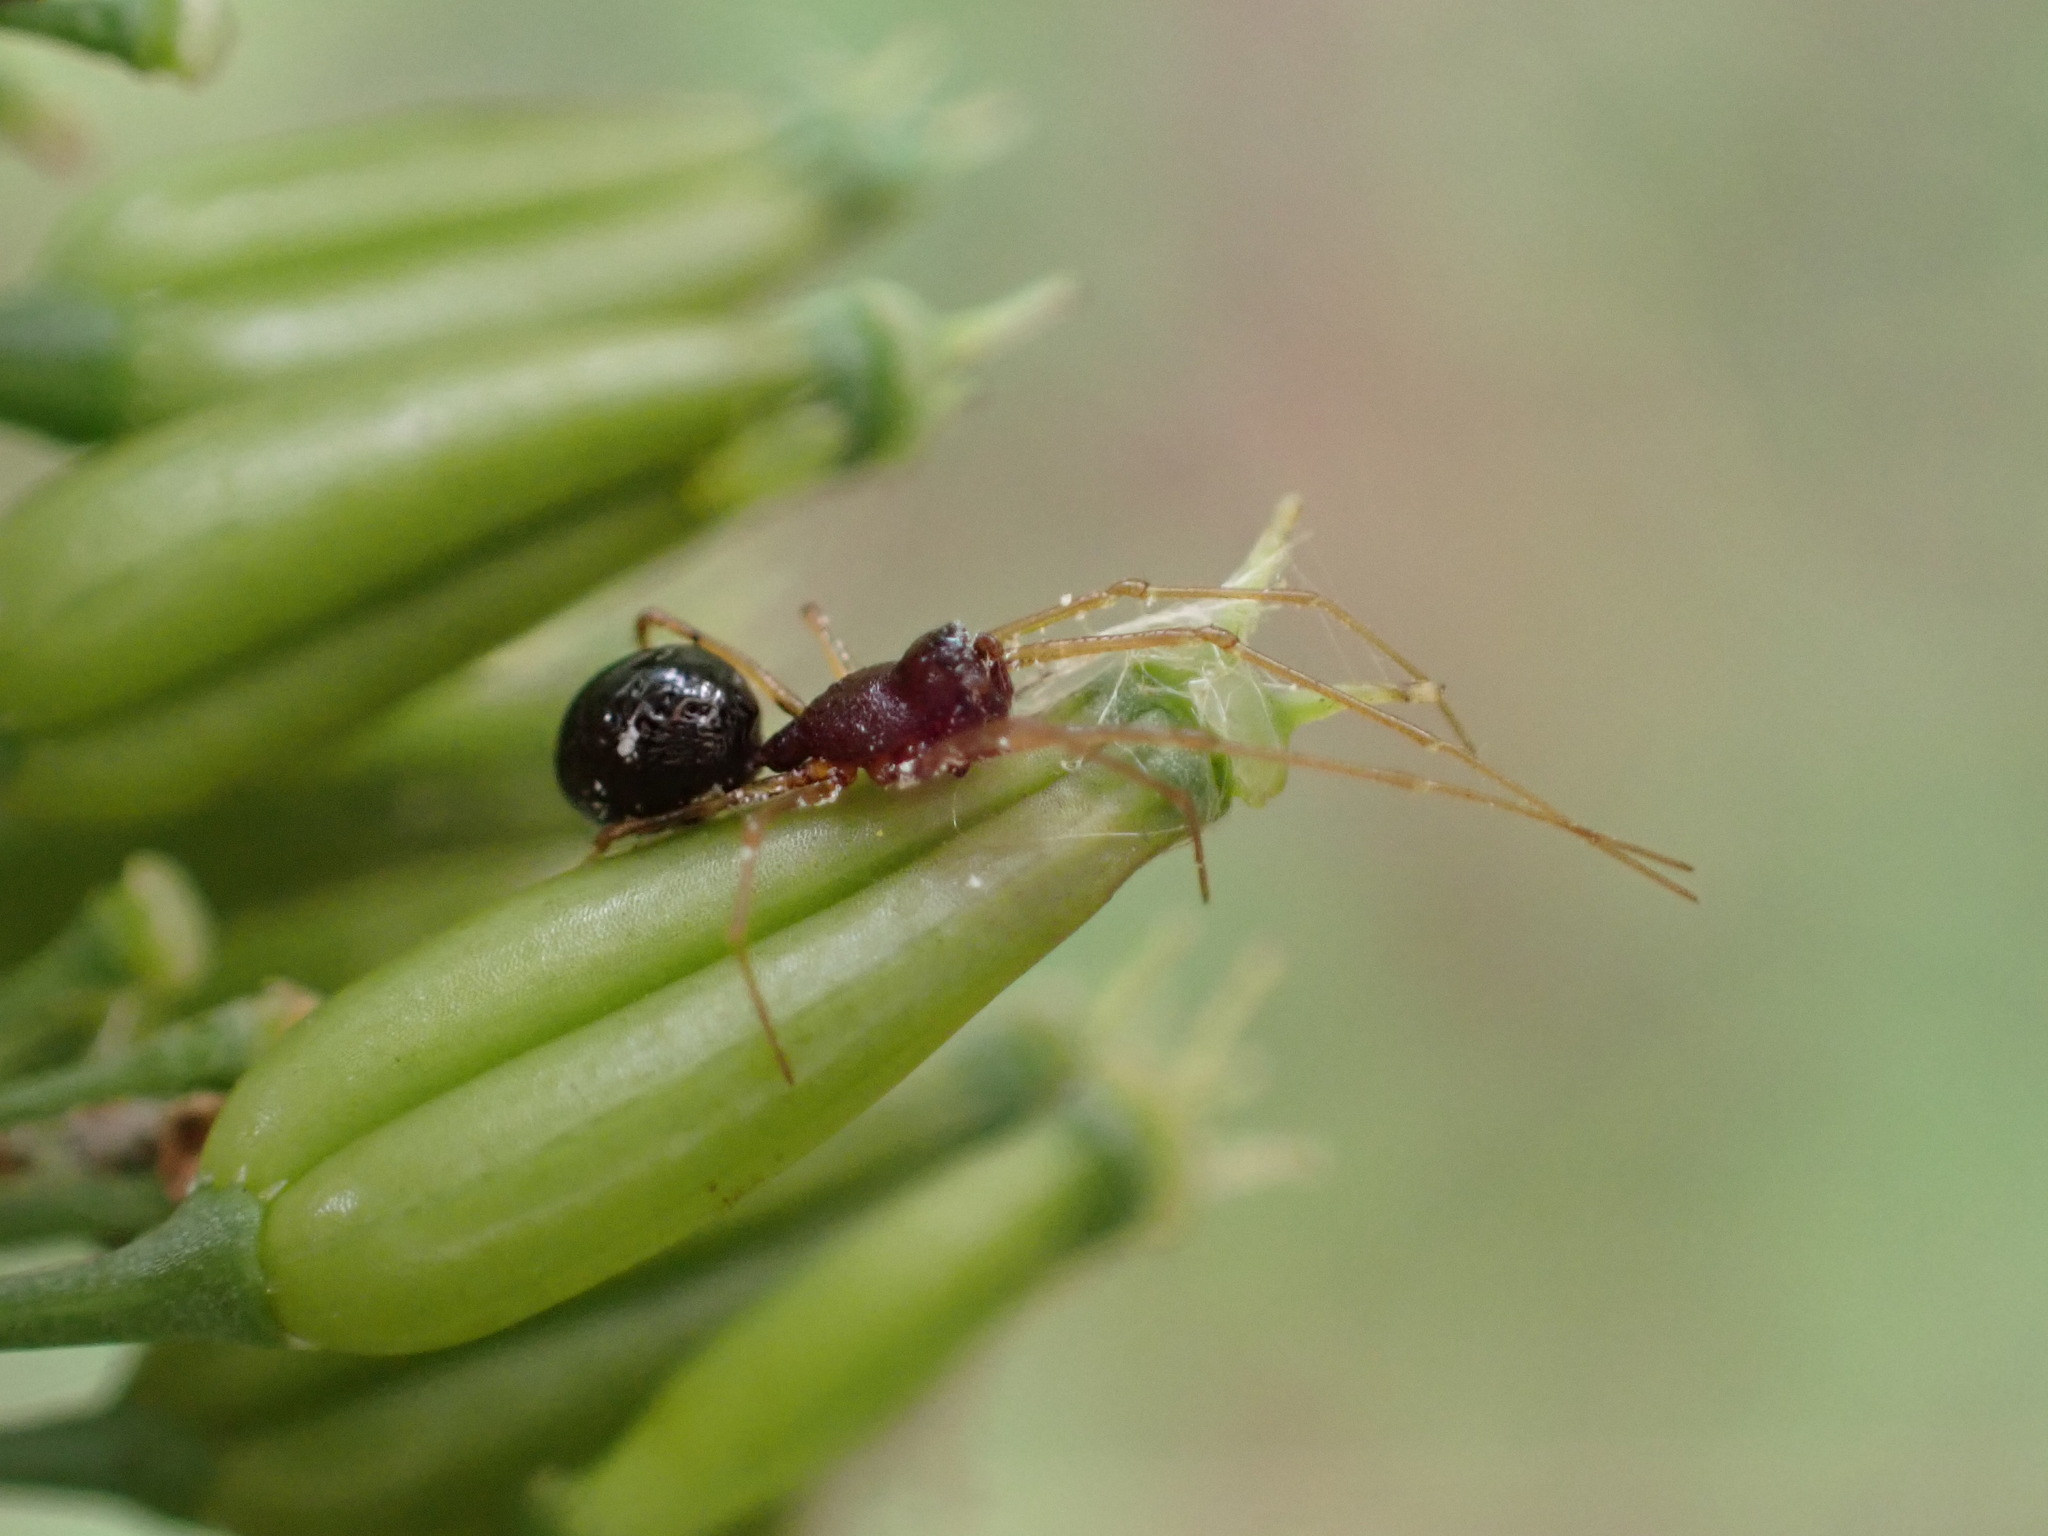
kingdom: Animalia
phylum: Arthropoda
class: Arachnida
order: Araneae
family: Linyphiidae
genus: Cresmatoneta
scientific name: Cresmatoneta mutinensis
